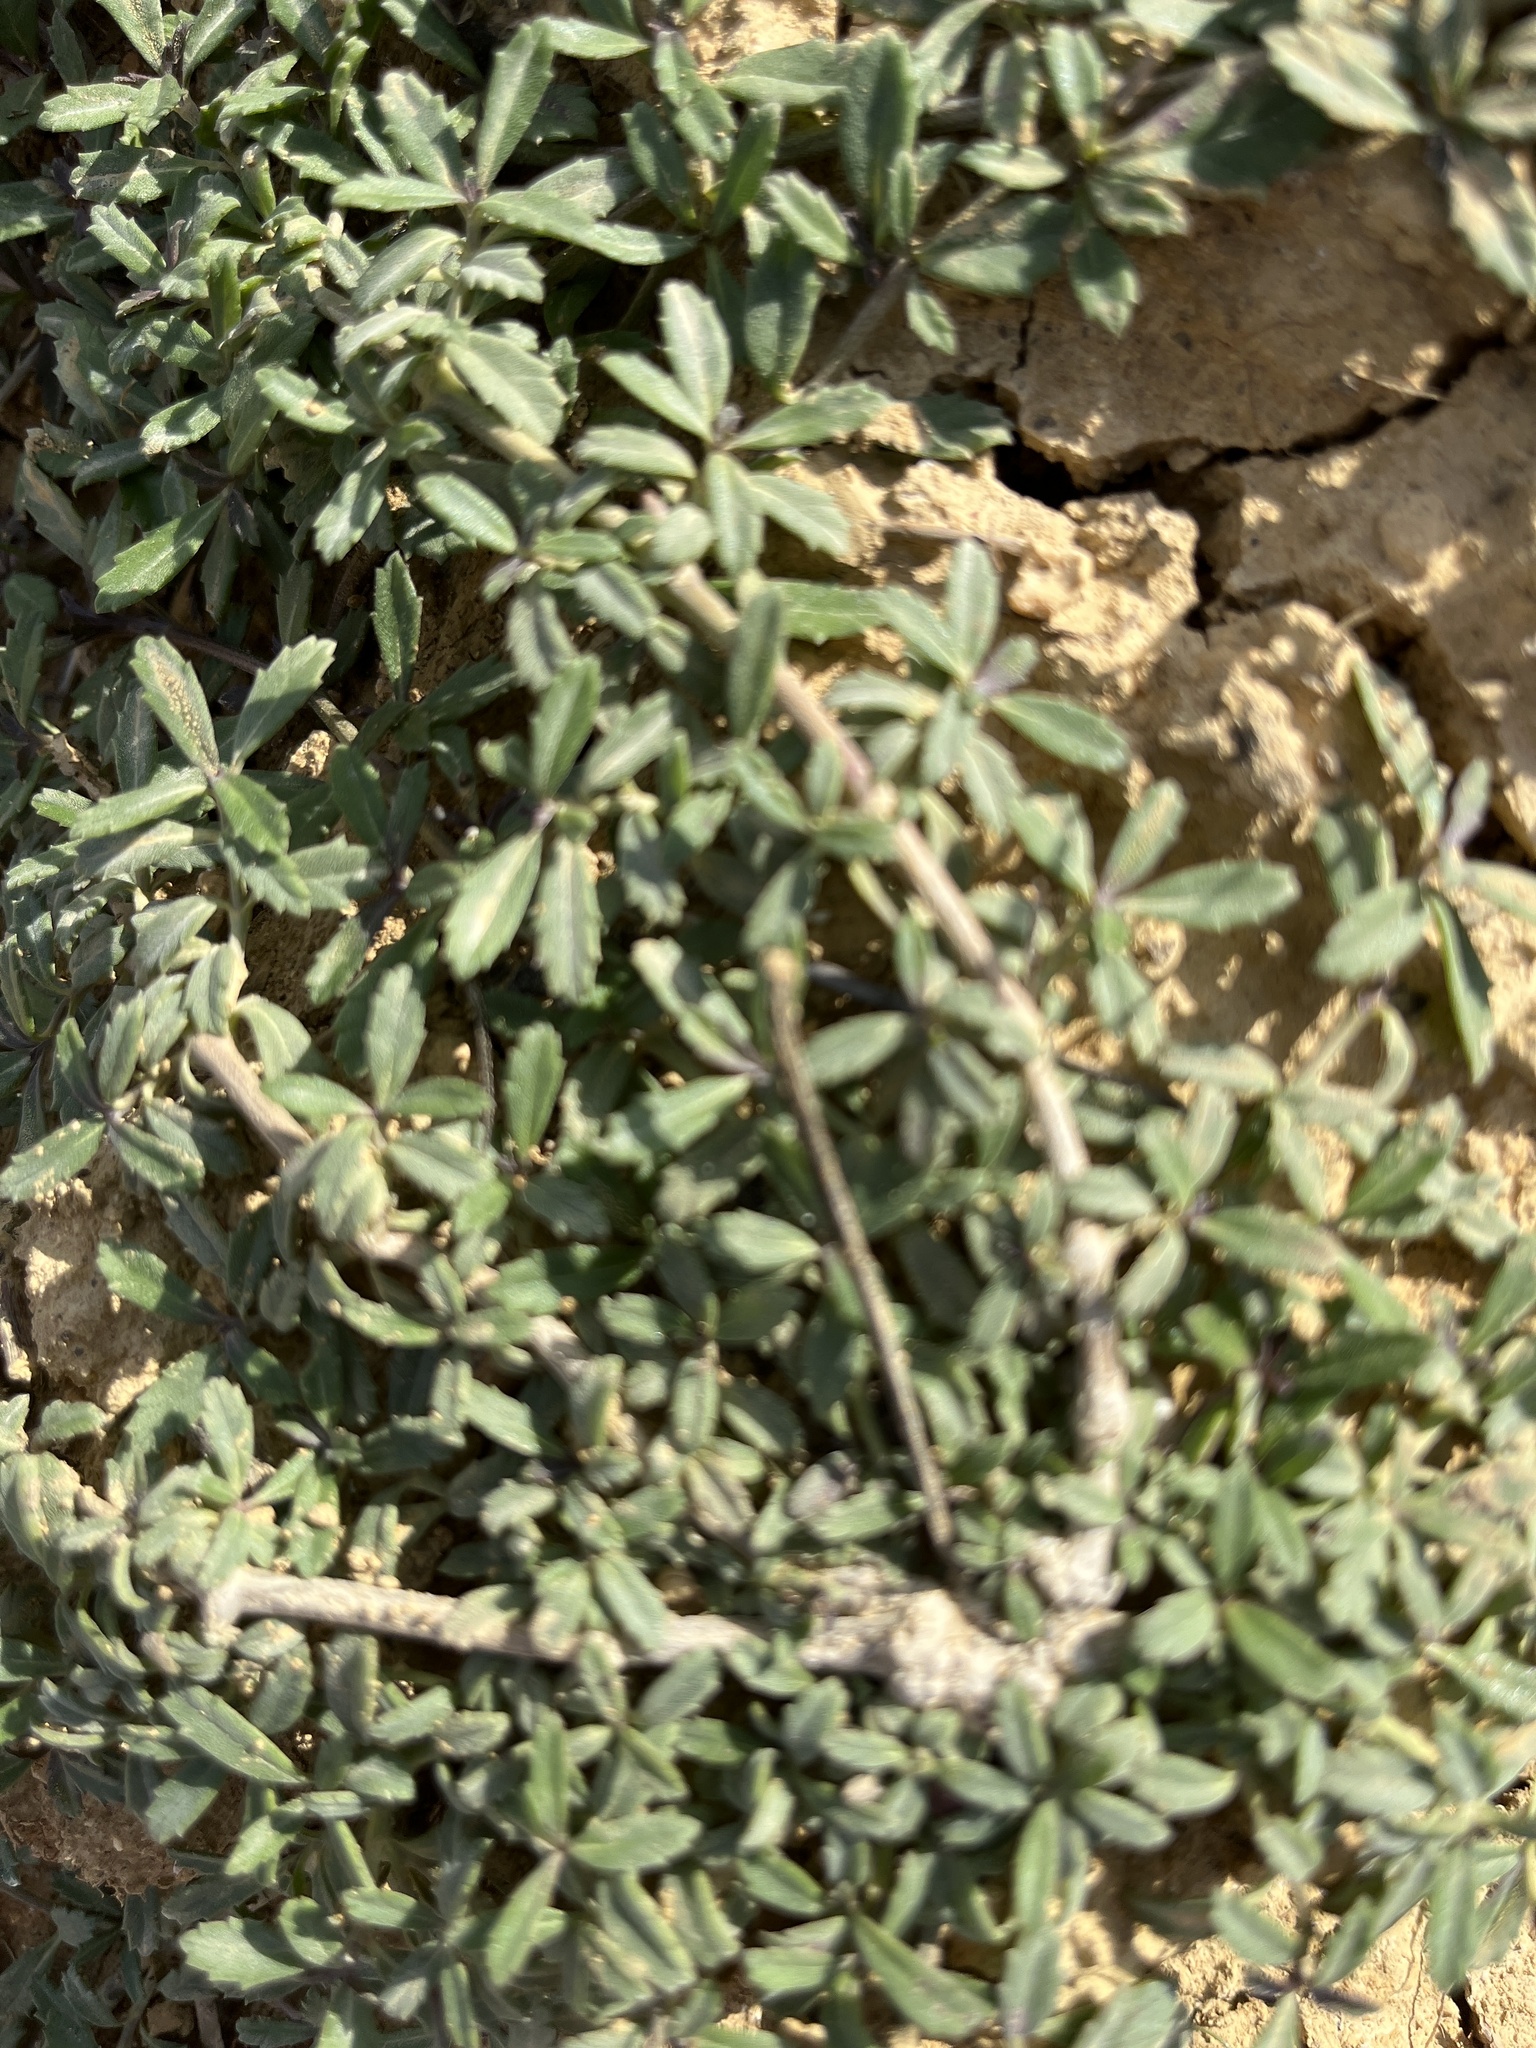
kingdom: Plantae
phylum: Tracheophyta
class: Magnoliopsida
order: Lamiales
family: Verbenaceae
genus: Phyla
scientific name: Phyla nodiflora
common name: Frogfruit
